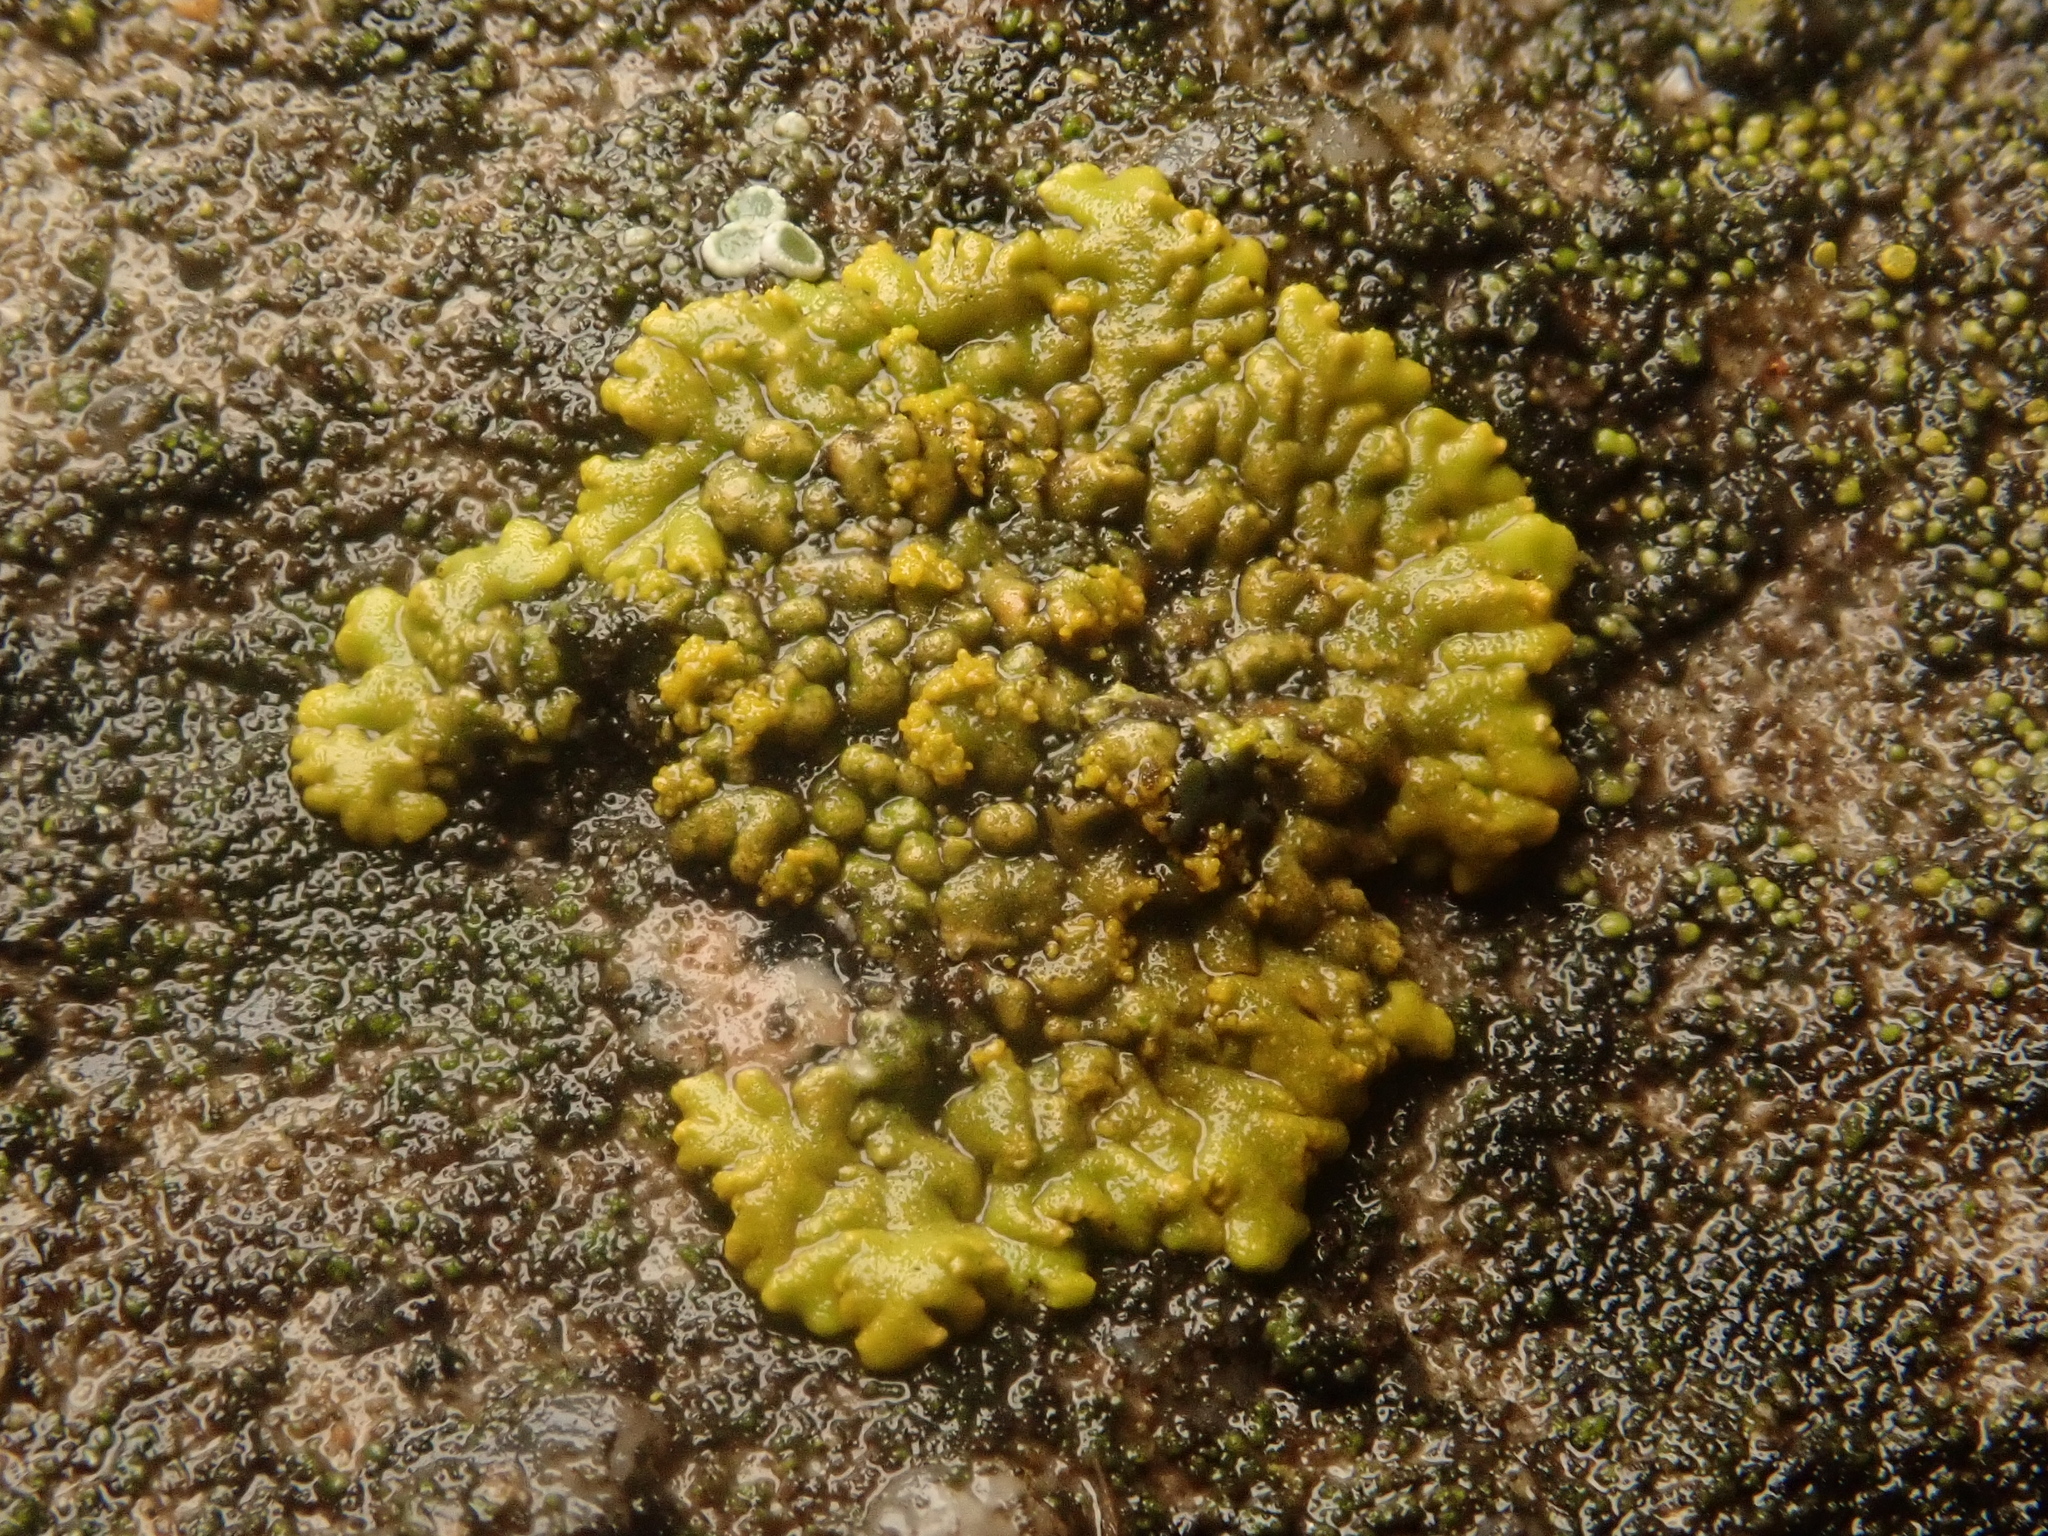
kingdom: Fungi
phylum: Ascomycota
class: Lecanoromycetes
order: Teloschistales
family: Teloschistaceae
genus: Calogaya
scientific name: Calogaya decipiens
